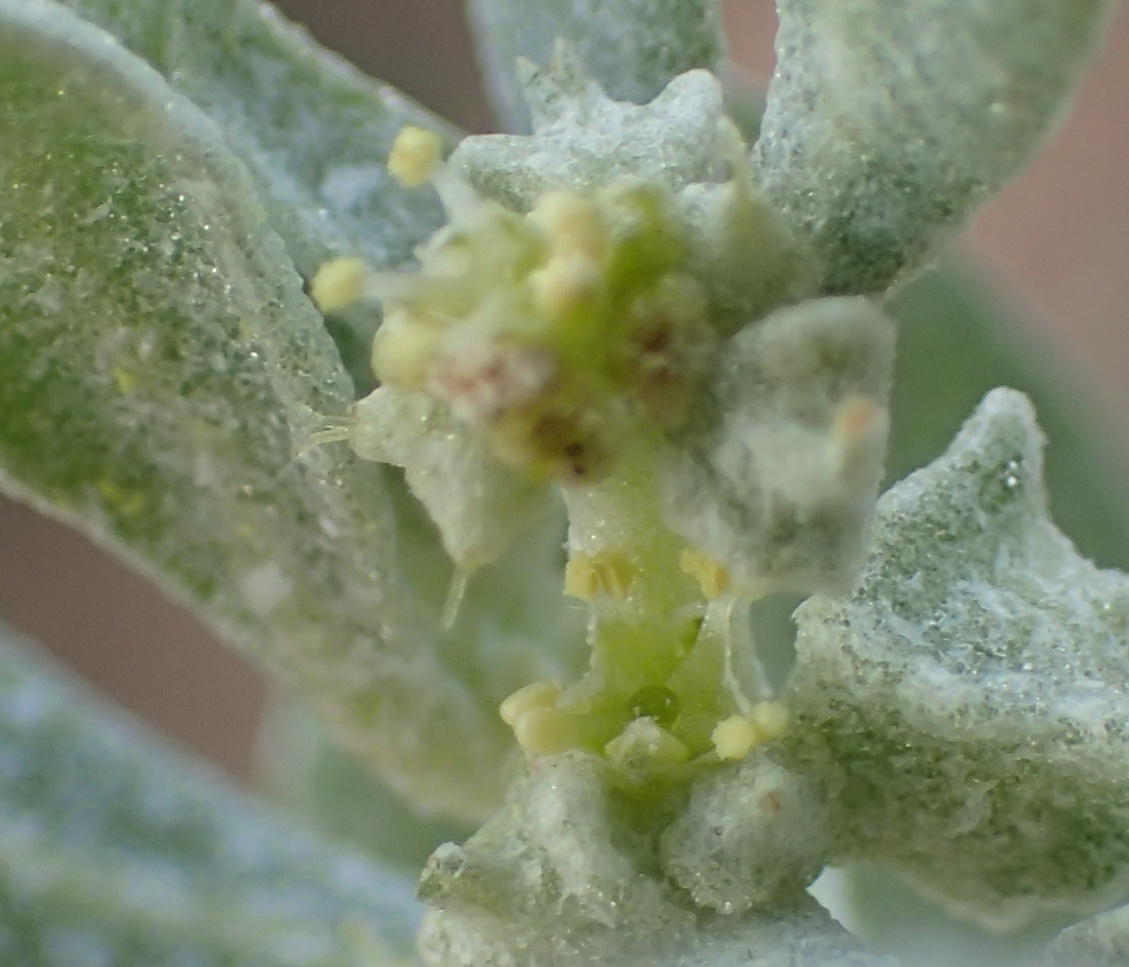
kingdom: Plantae
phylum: Tracheophyta
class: Magnoliopsida
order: Caryophyllales
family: Amaranthaceae
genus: Atriplex
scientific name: Atriplex lindleyi
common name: Lindley's saltbush
